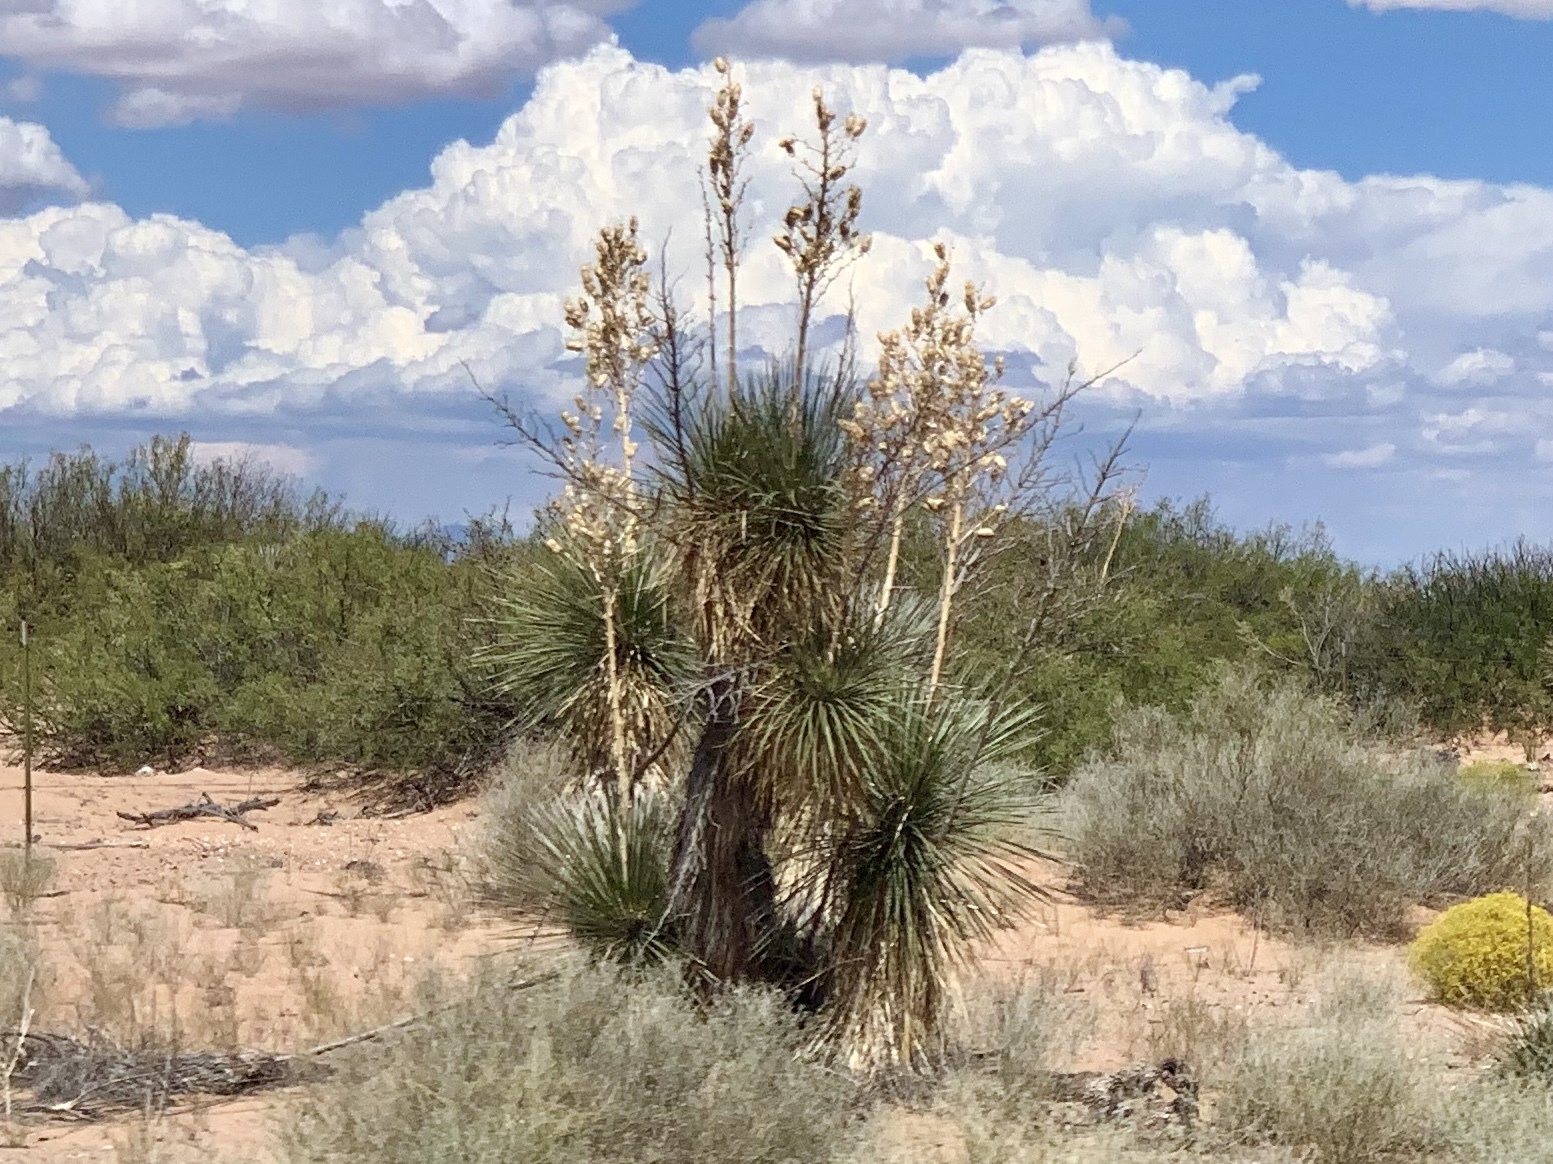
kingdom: Plantae
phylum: Tracheophyta
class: Liliopsida
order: Asparagales
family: Asparagaceae
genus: Yucca
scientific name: Yucca elata
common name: Palmella
